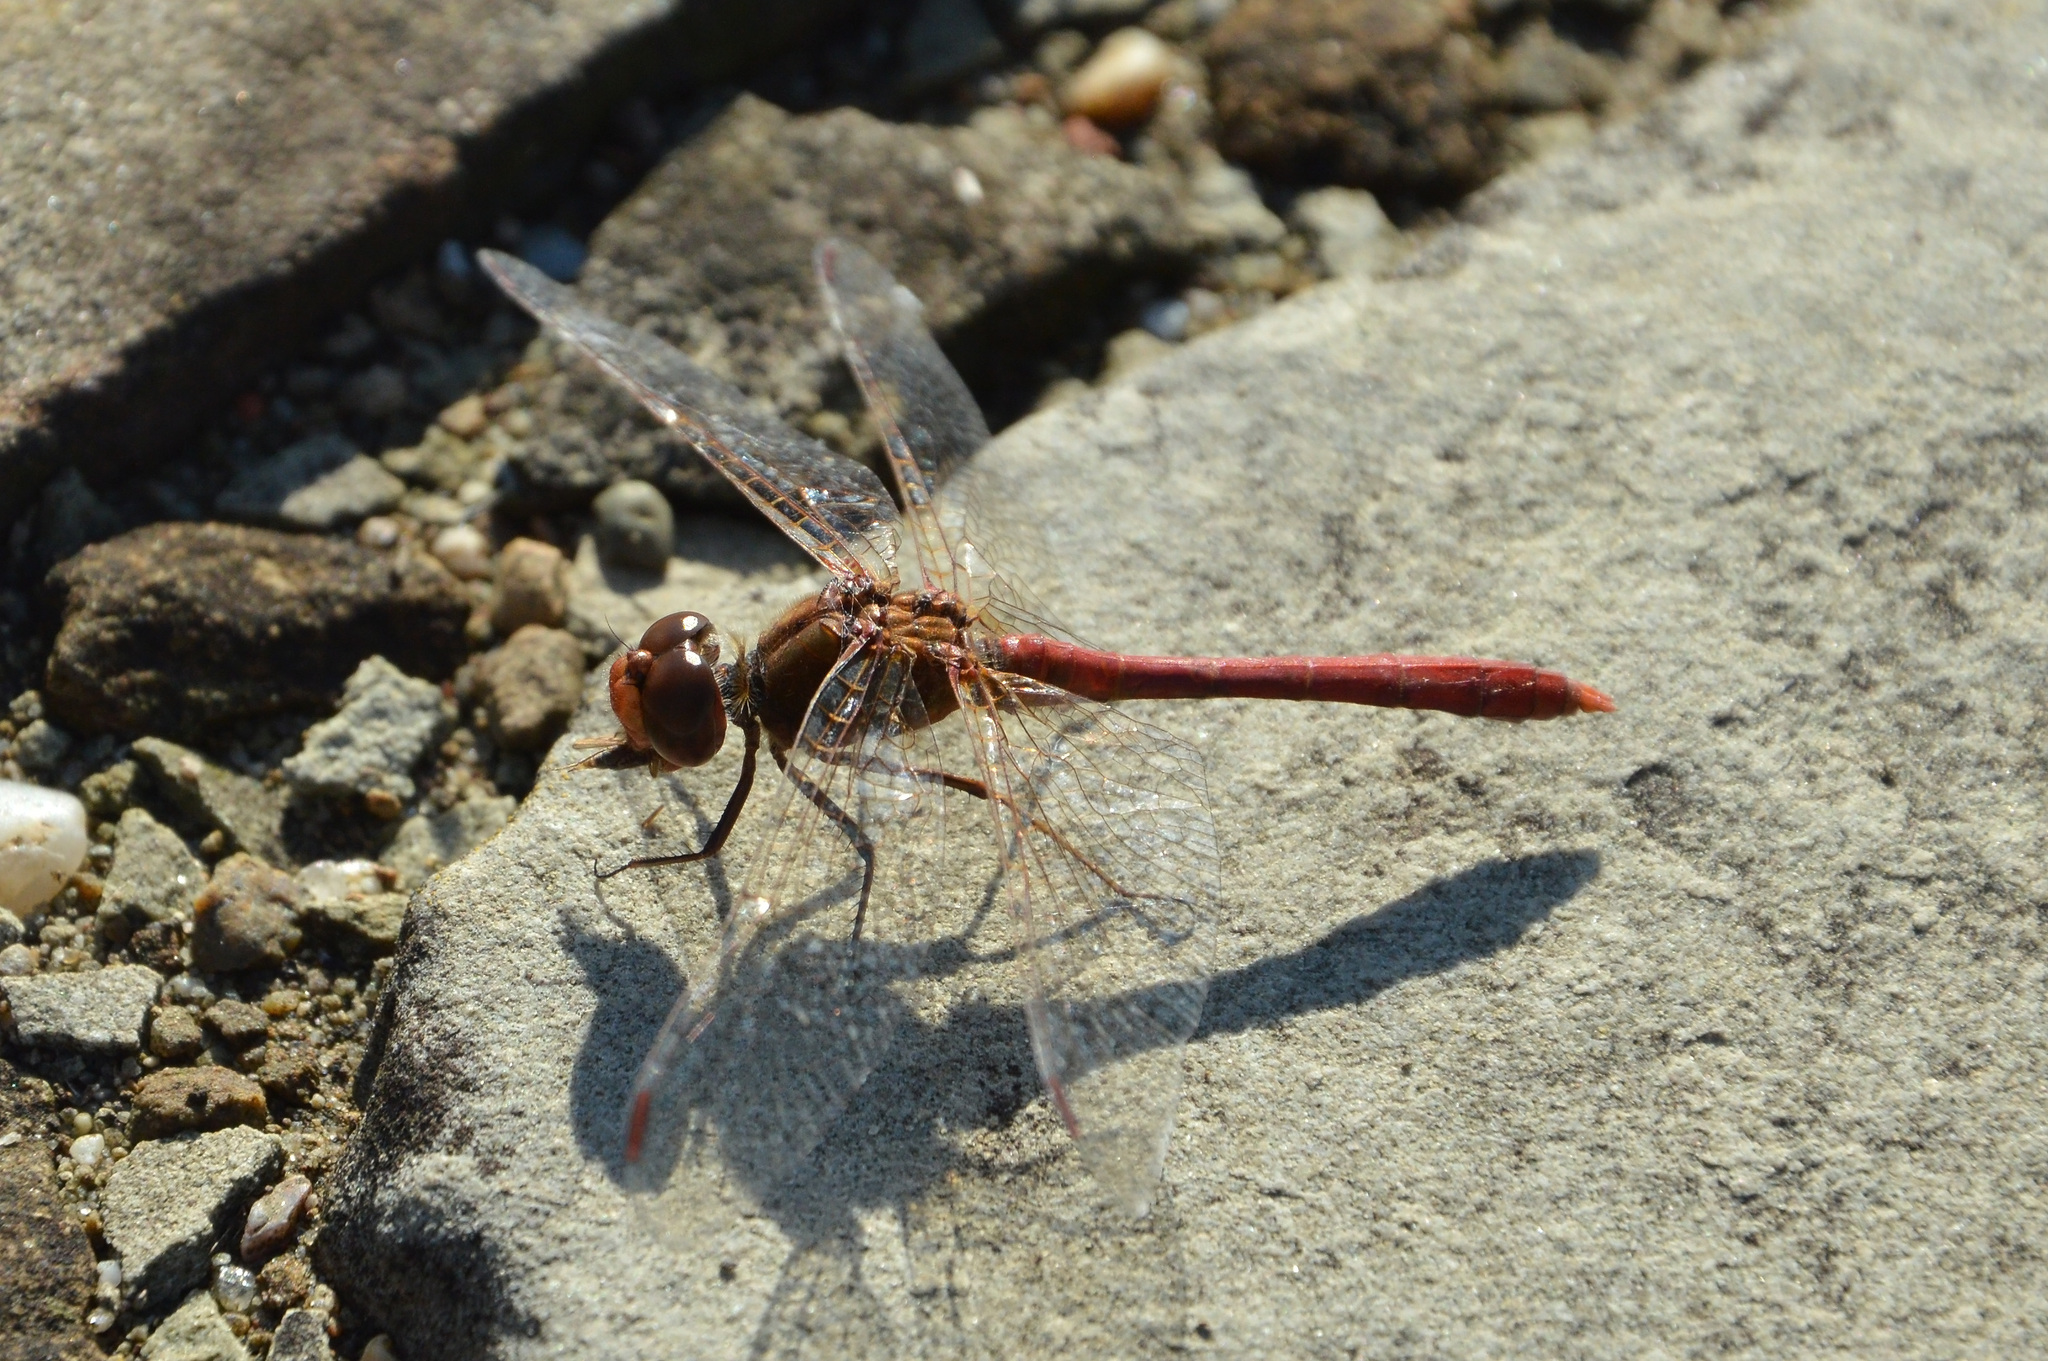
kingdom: Animalia
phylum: Arthropoda
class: Insecta
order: Odonata
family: Libellulidae
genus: Sympetrum
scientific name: Sympetrum meridionale
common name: Southern darter
